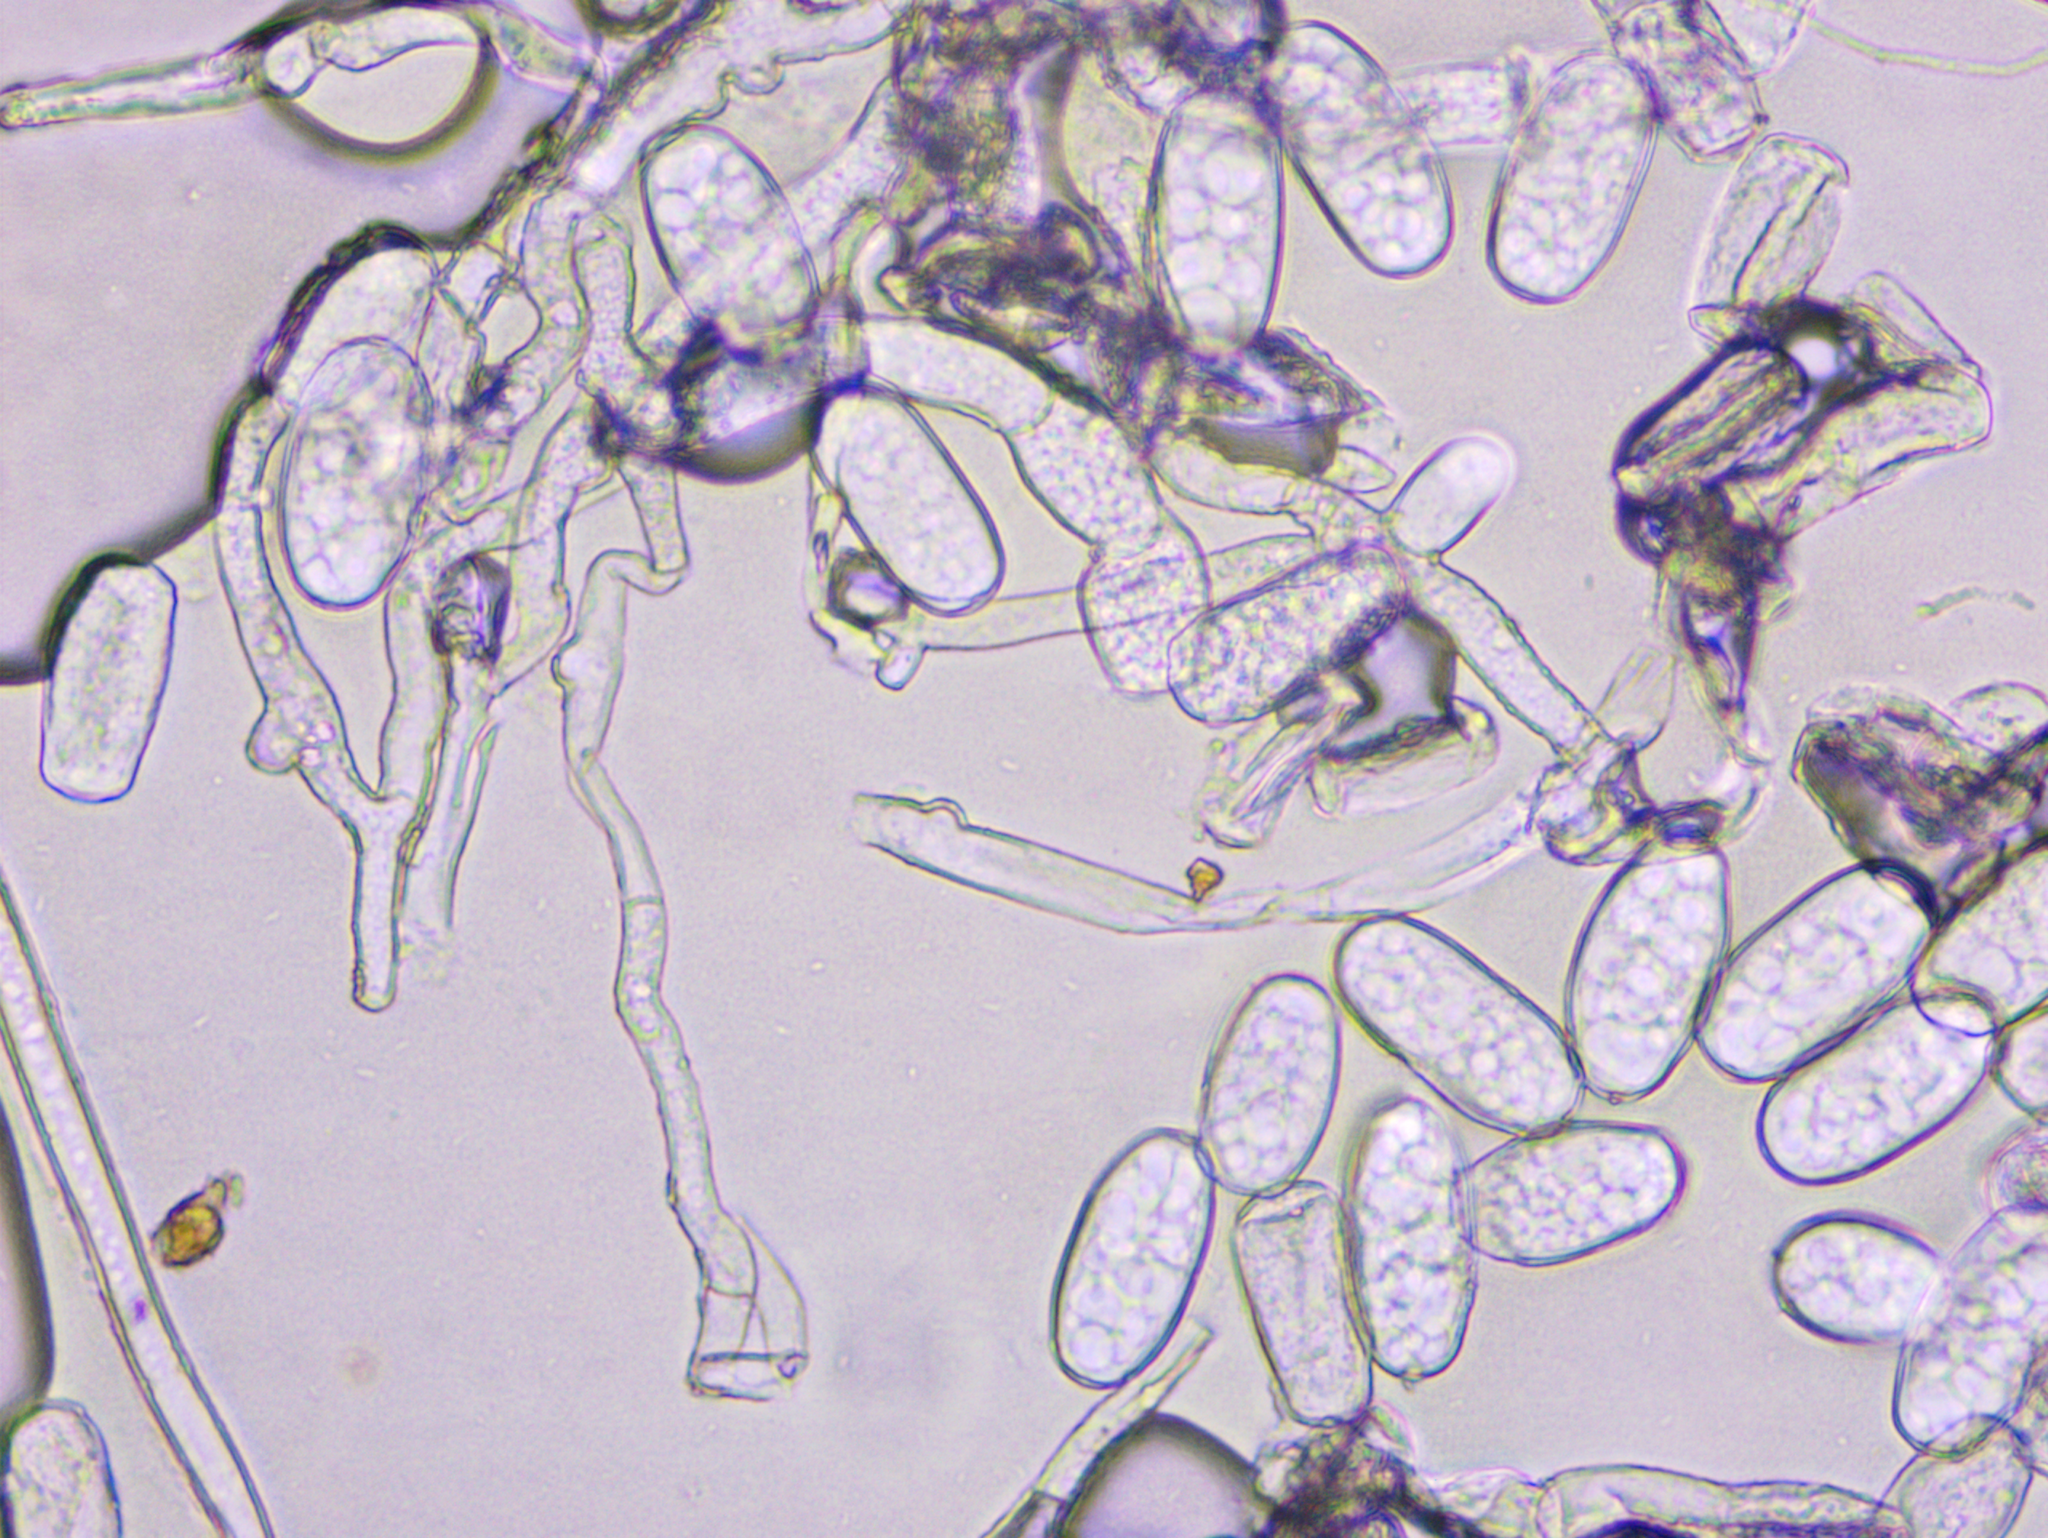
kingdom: Fungi
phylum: Ascomycota
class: Leotiomycetes
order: Helotiales
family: Erysiphaceae
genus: Neoerysiphe
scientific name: Neoerysiphe galeopsidis
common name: Mint mildew
